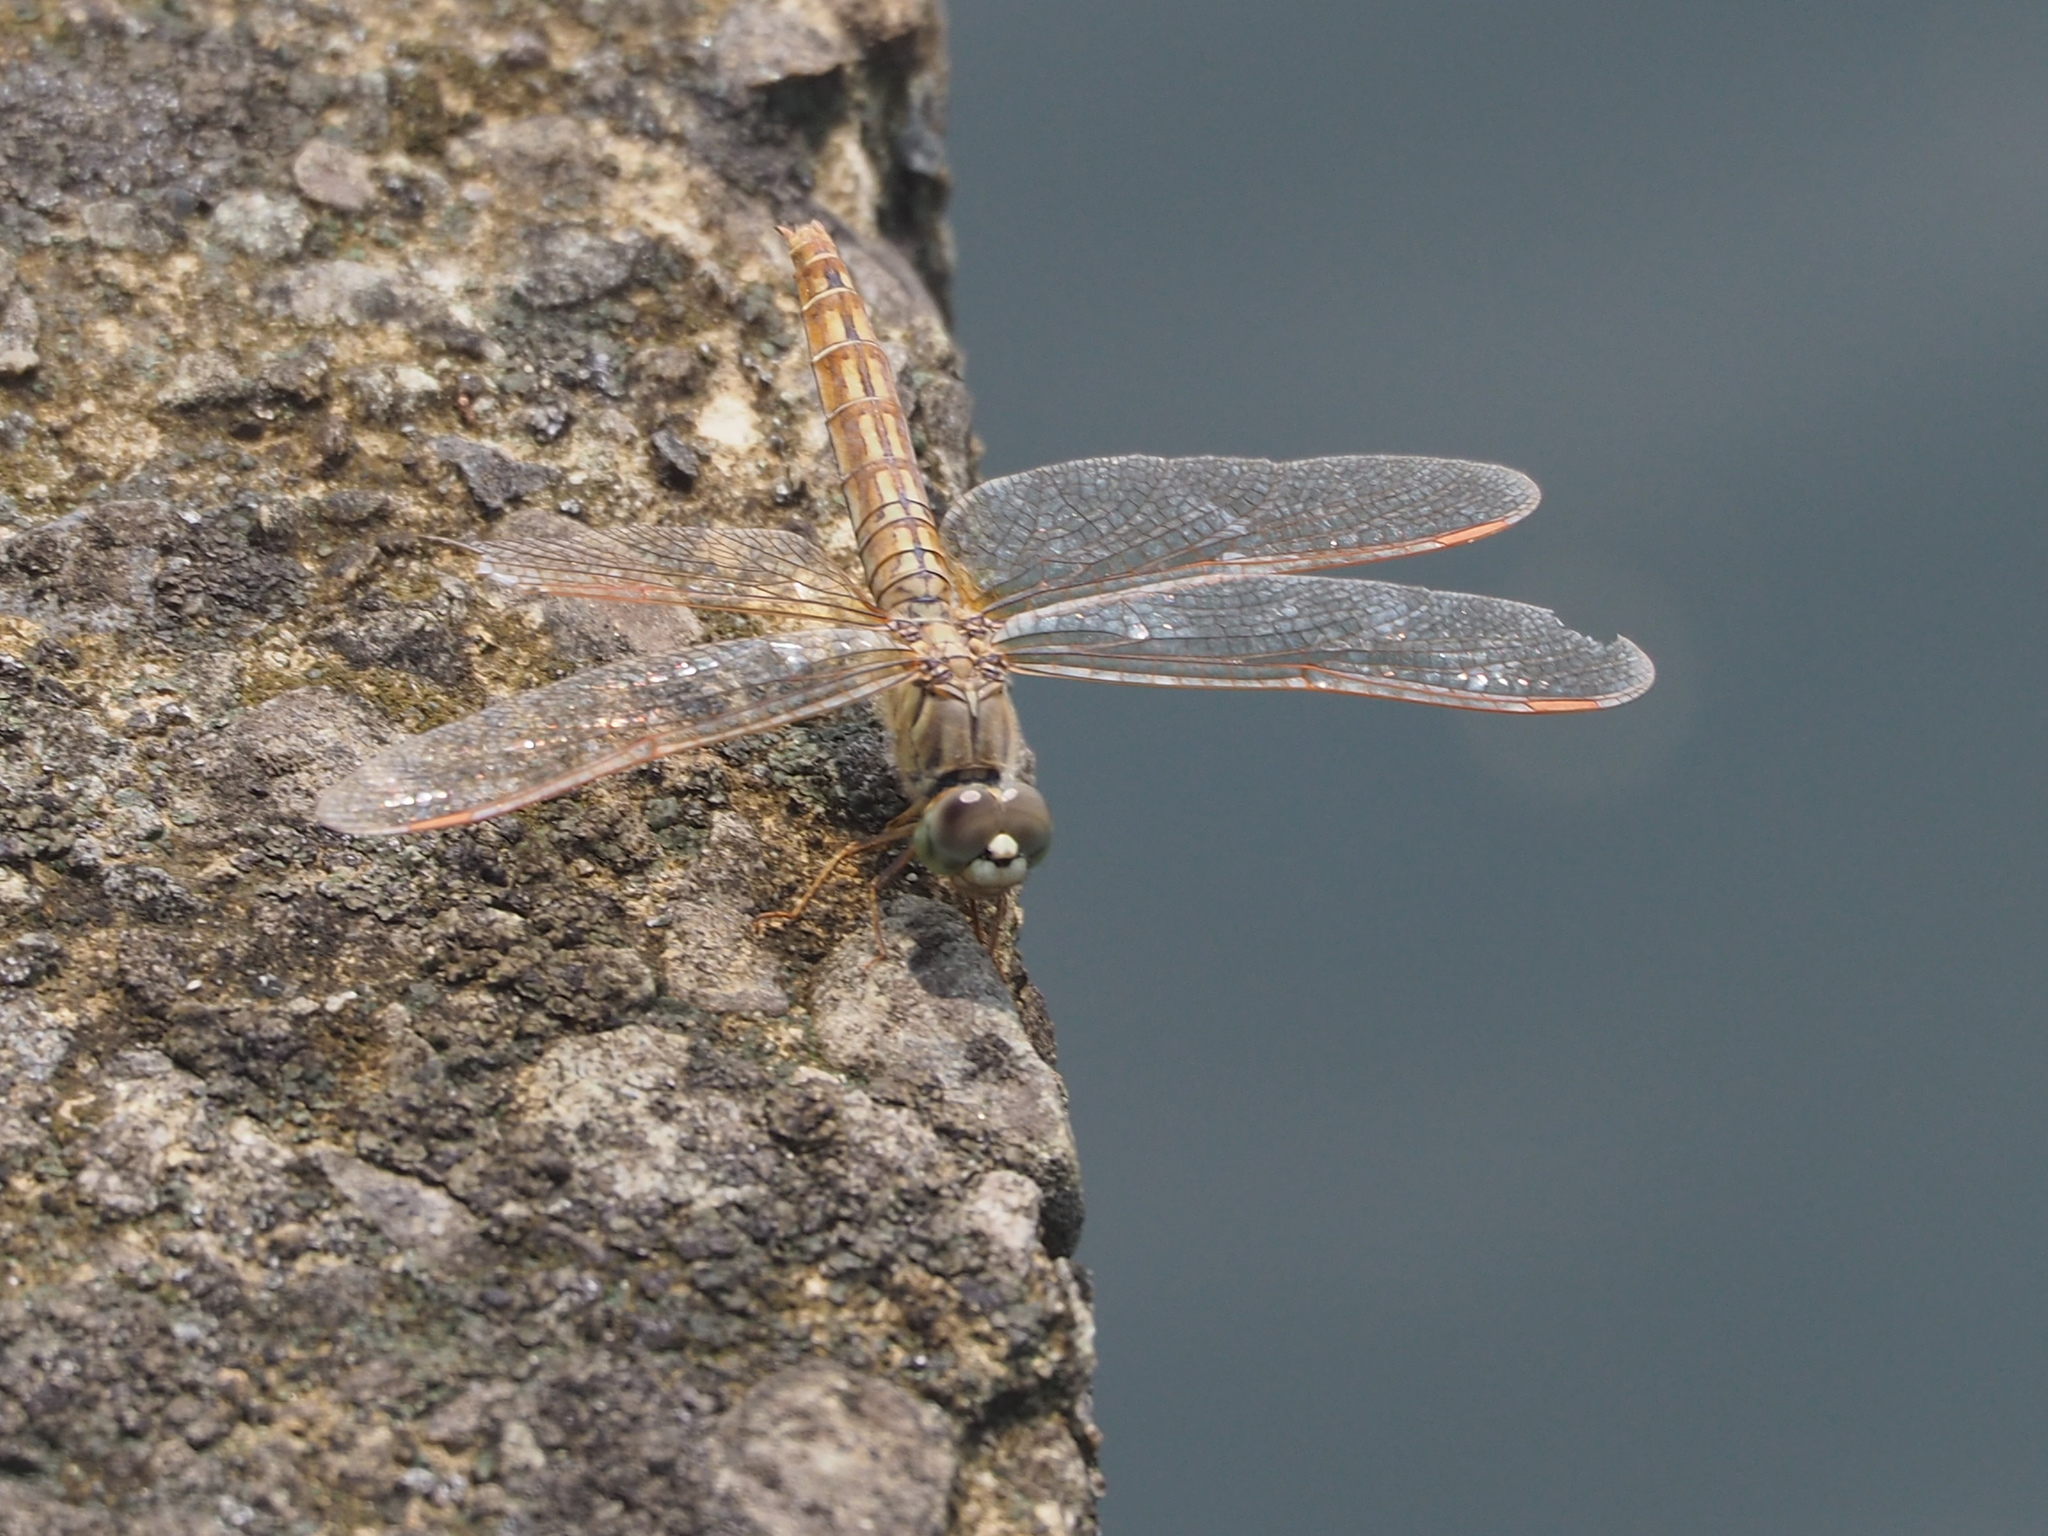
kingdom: Animalia
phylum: Arthropoda
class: Insecta
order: Odonata
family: Libellulidae
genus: Brachythemis
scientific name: Brachythemis contaminata
